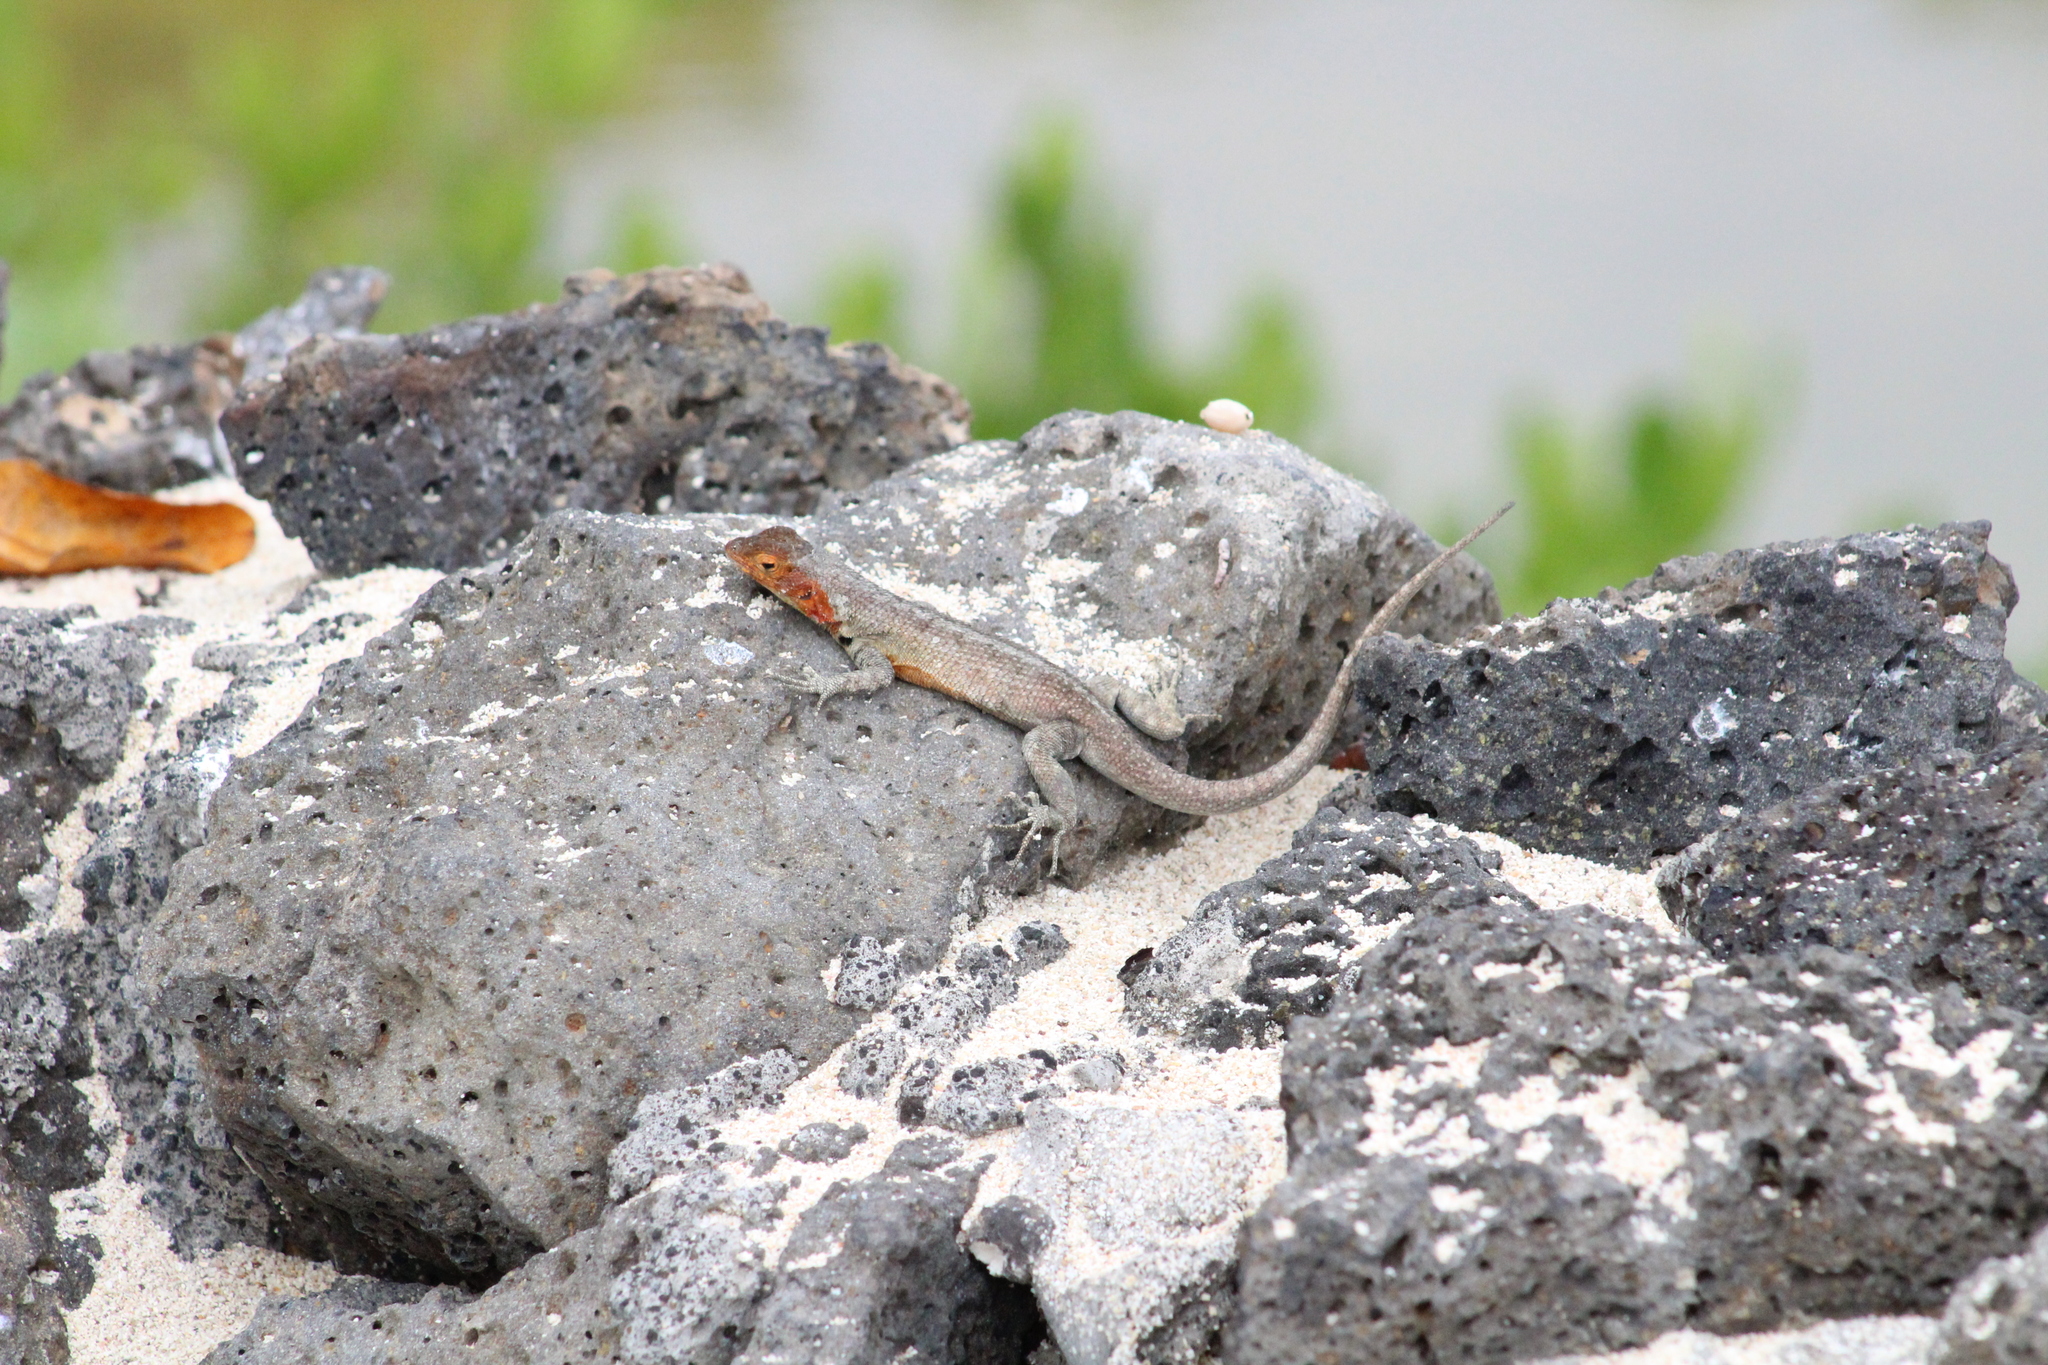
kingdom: Animalia
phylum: Chordata
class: Squamata
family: Tropiduridae
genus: Microlophus
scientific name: Microlophus indefatigabilis
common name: Galapagos lava lizard
